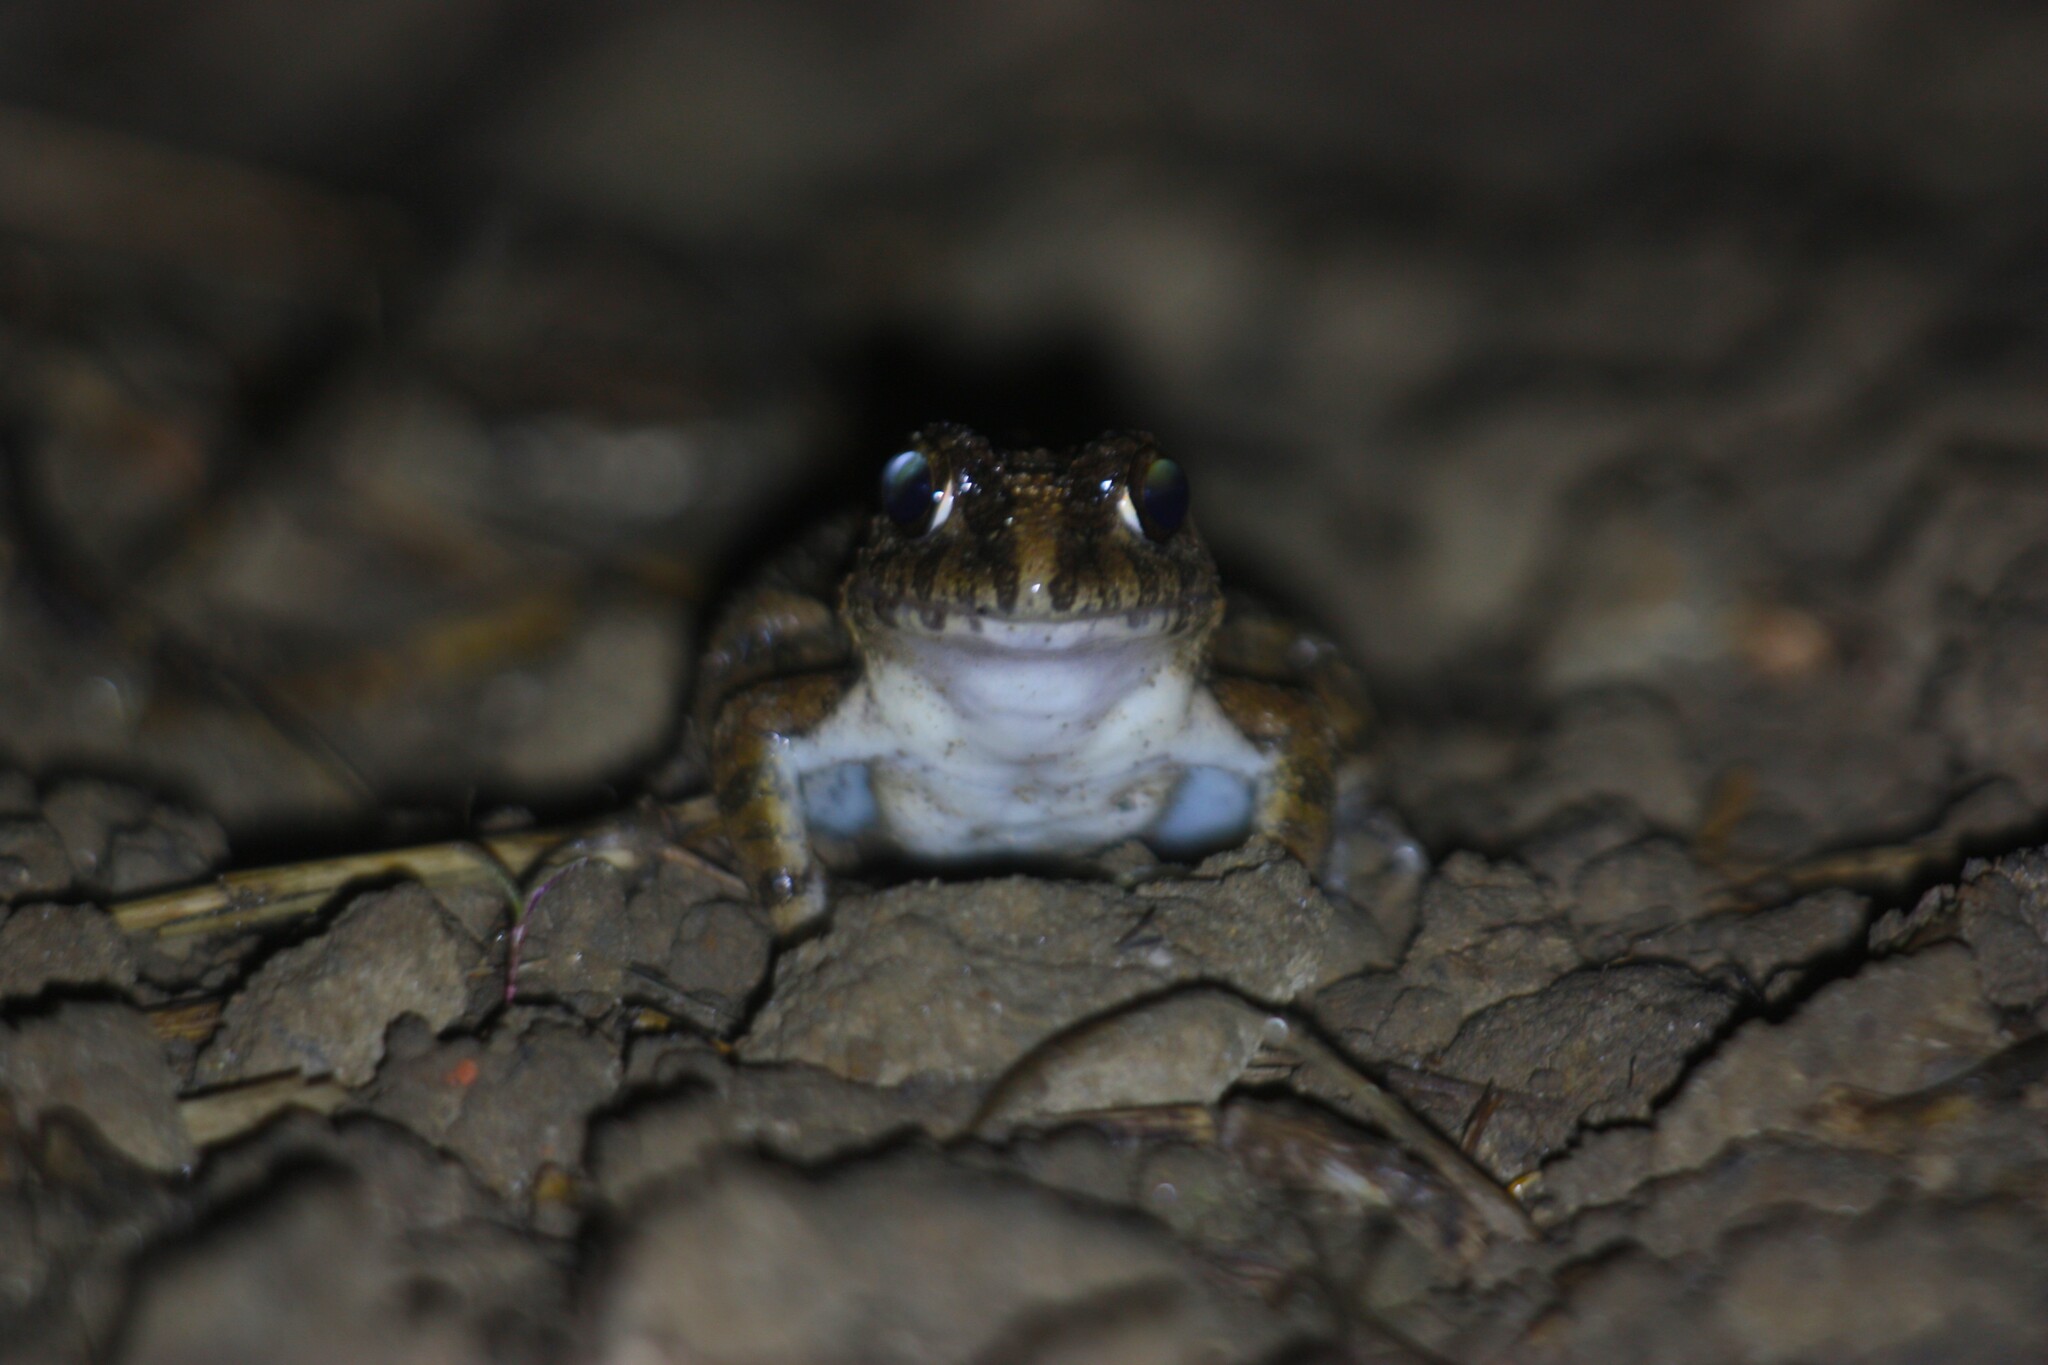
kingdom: Animalia
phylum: Chordata
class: Amphibia
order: Anura
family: Dicroglossidae
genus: Fejervarya
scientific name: Fejervarya limnocharis
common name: Asian grass frog/common pond frog/field frog/grass frog/indian rice frog
